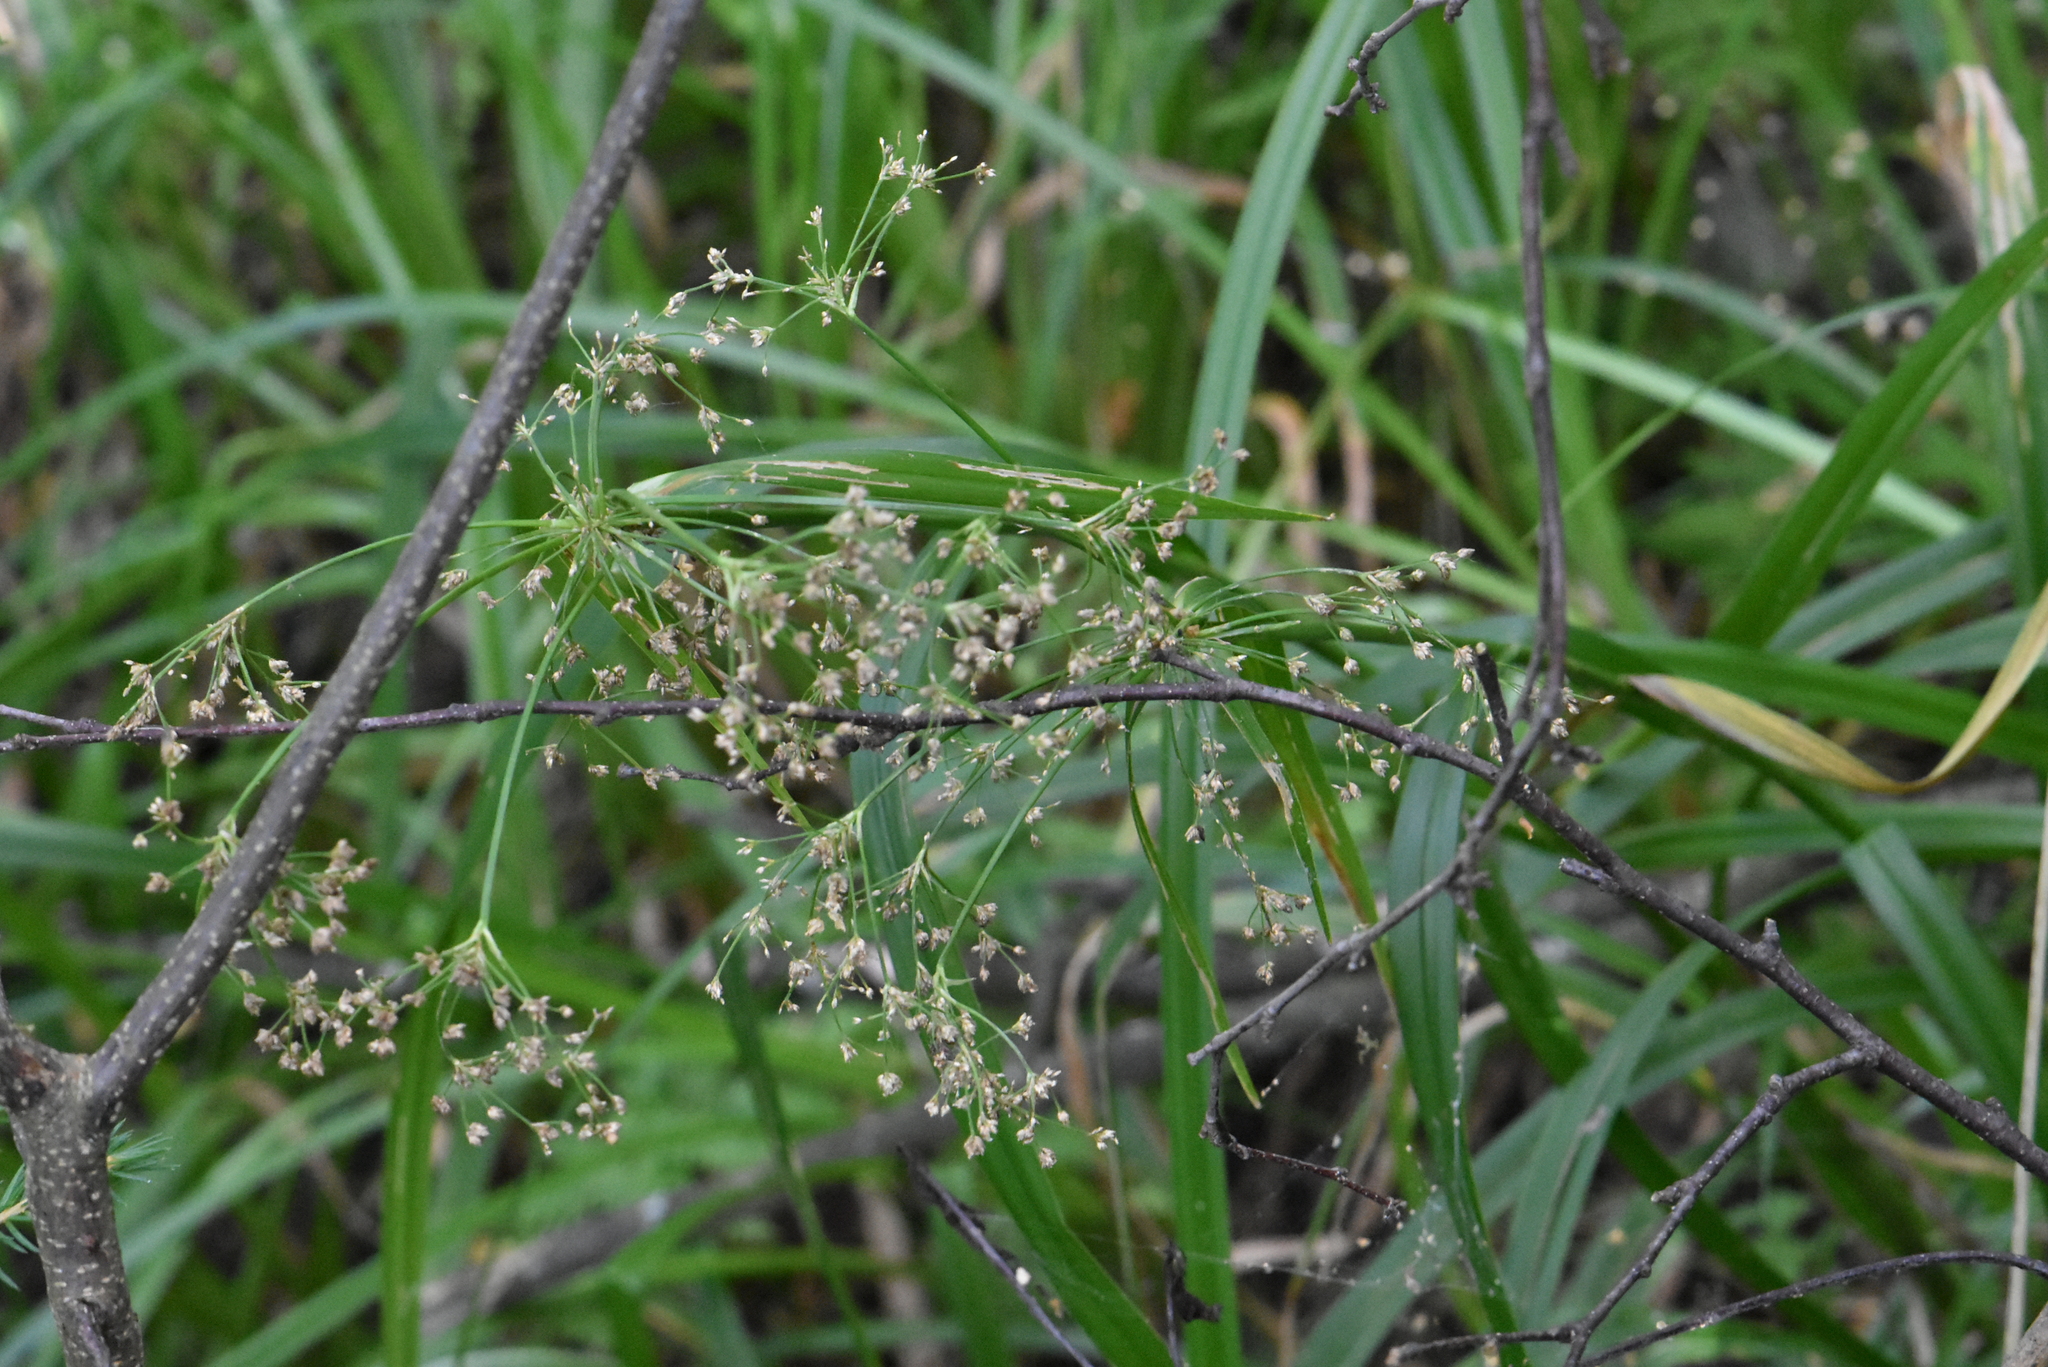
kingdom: Plantae
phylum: Tracheophyta
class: Liliopsida
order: Poales
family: Cyperaceae
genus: Scirpus
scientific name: Scirpus sylvaticus
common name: Wood club-rush
